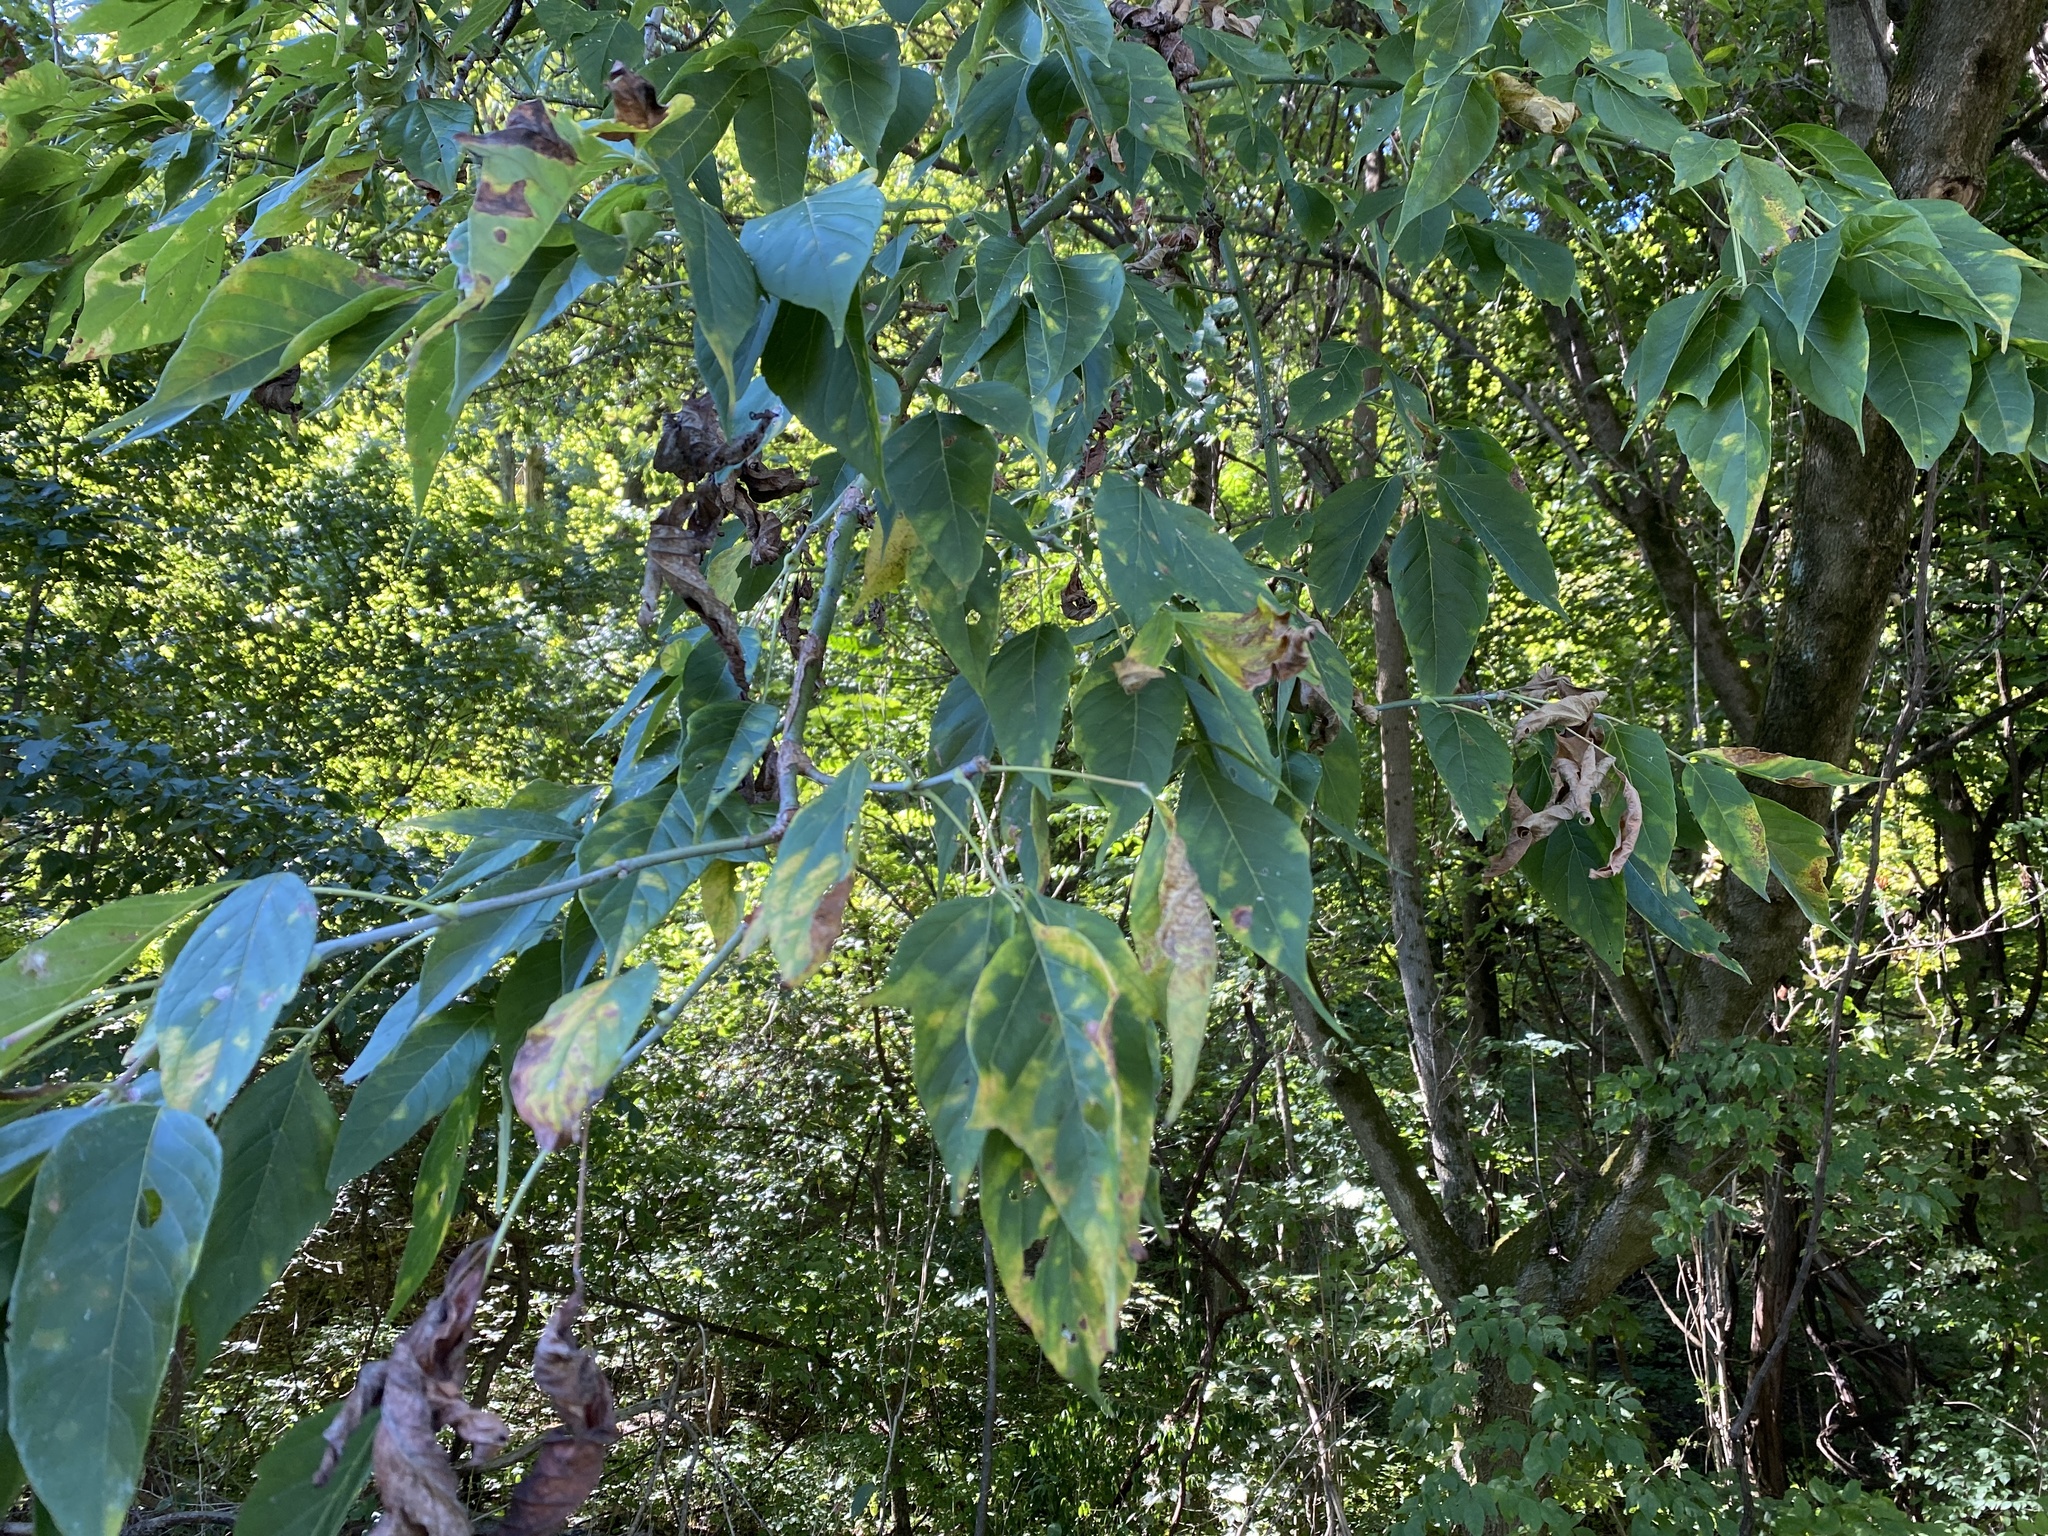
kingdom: Plantae
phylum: Tracheophyta
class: Magnoliopsida
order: Sapindales
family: Sapindaceae
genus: Acer
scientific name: Acer negundo
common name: Ashleaf maple
